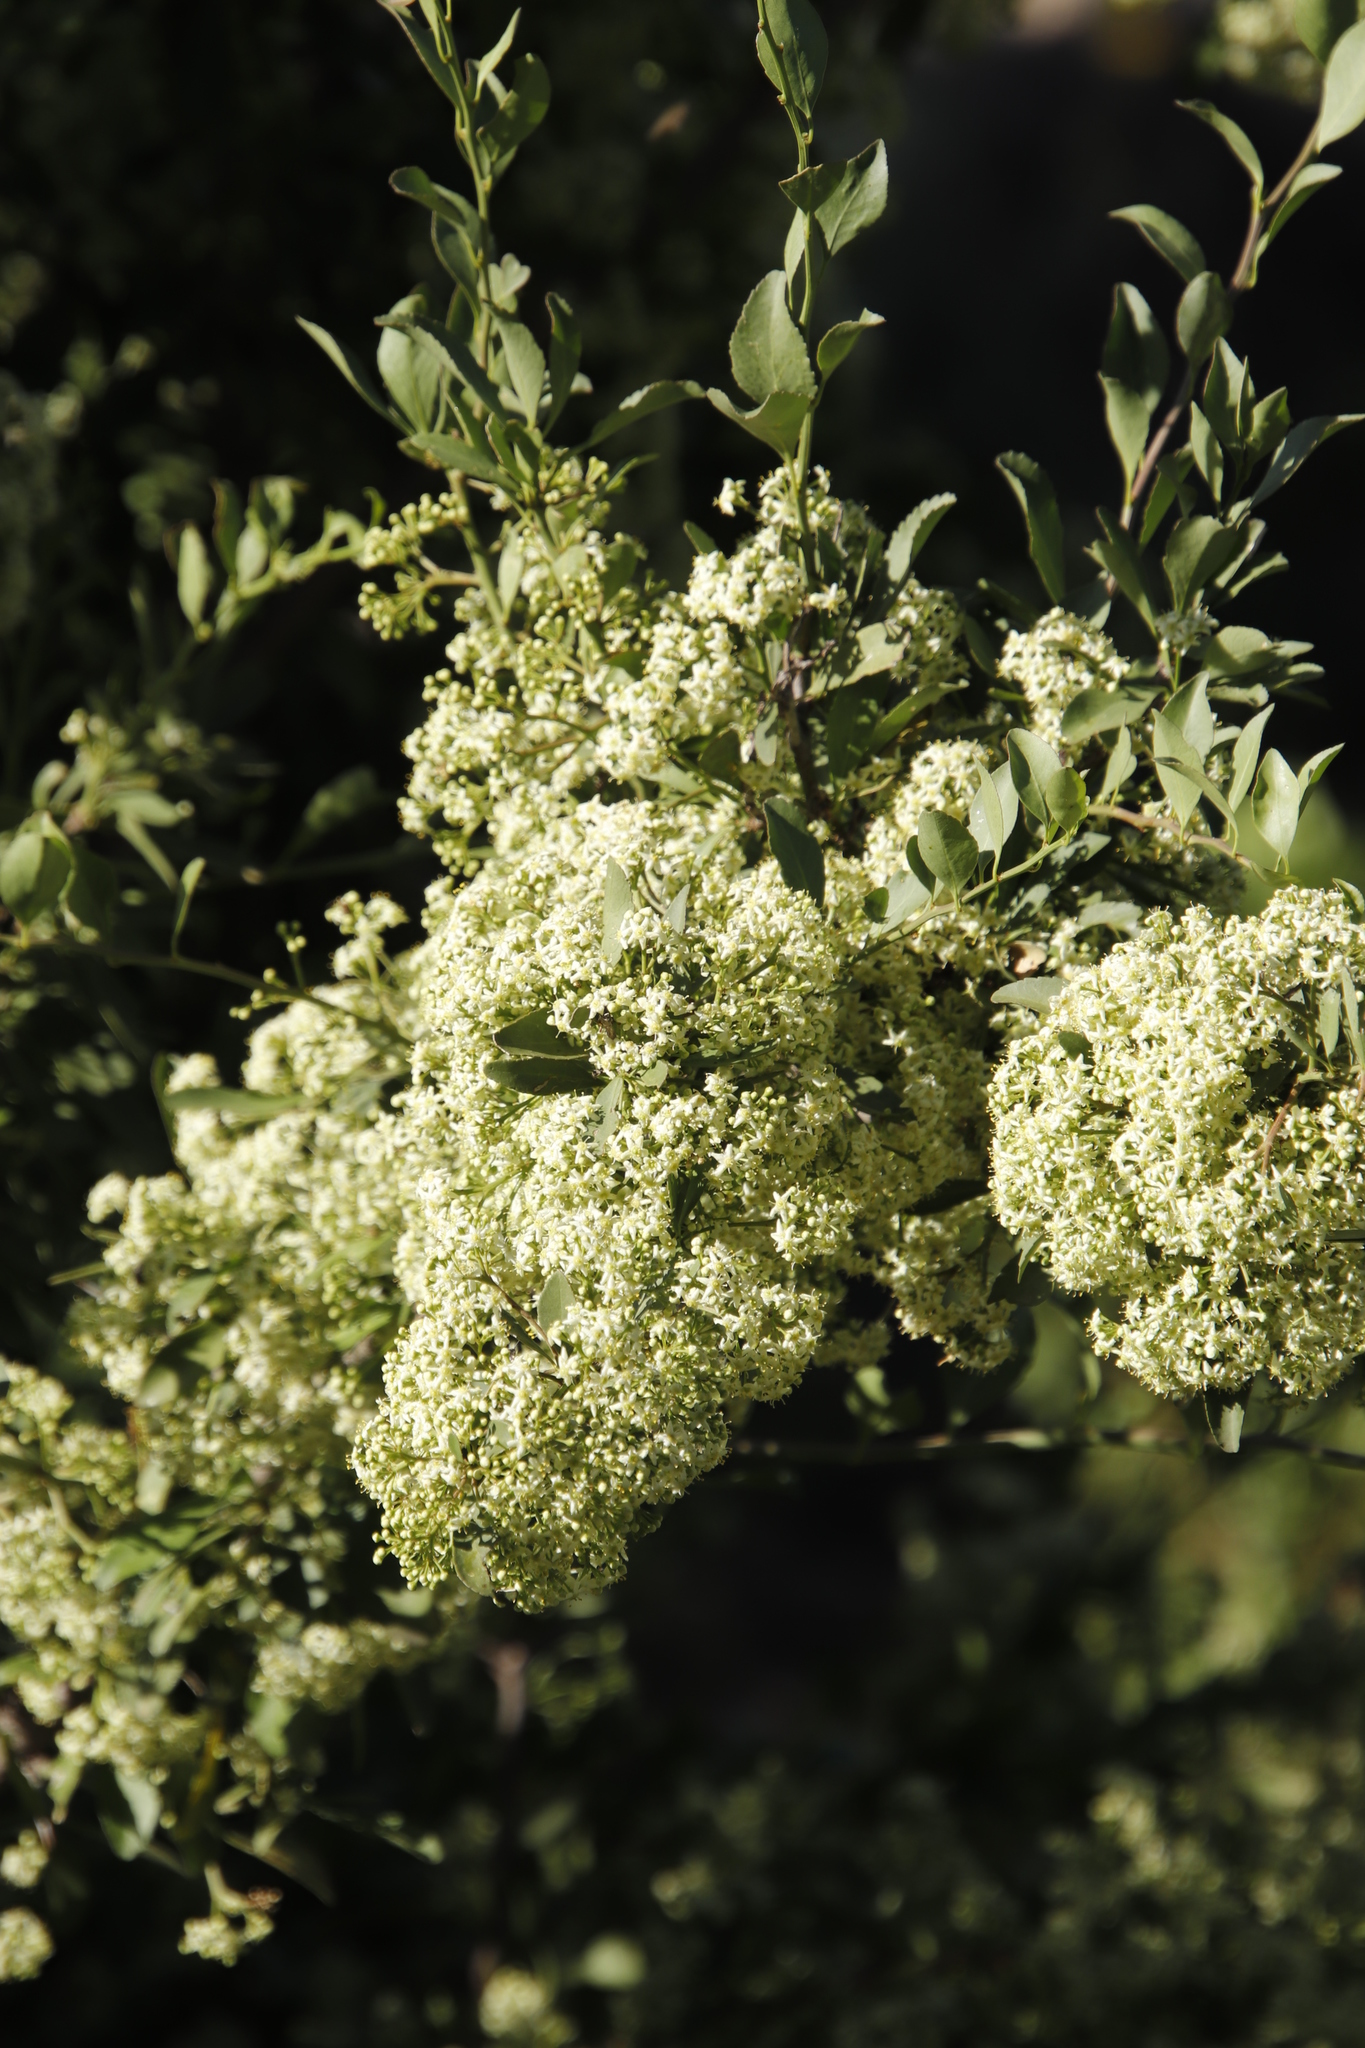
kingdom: Plantae
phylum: Tracheophyta
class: Magnoliopsida
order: Celastrales
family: Celastraceae
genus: Gymnosporia
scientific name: Gymnosporia buxifolia
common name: Common spike-thorn
